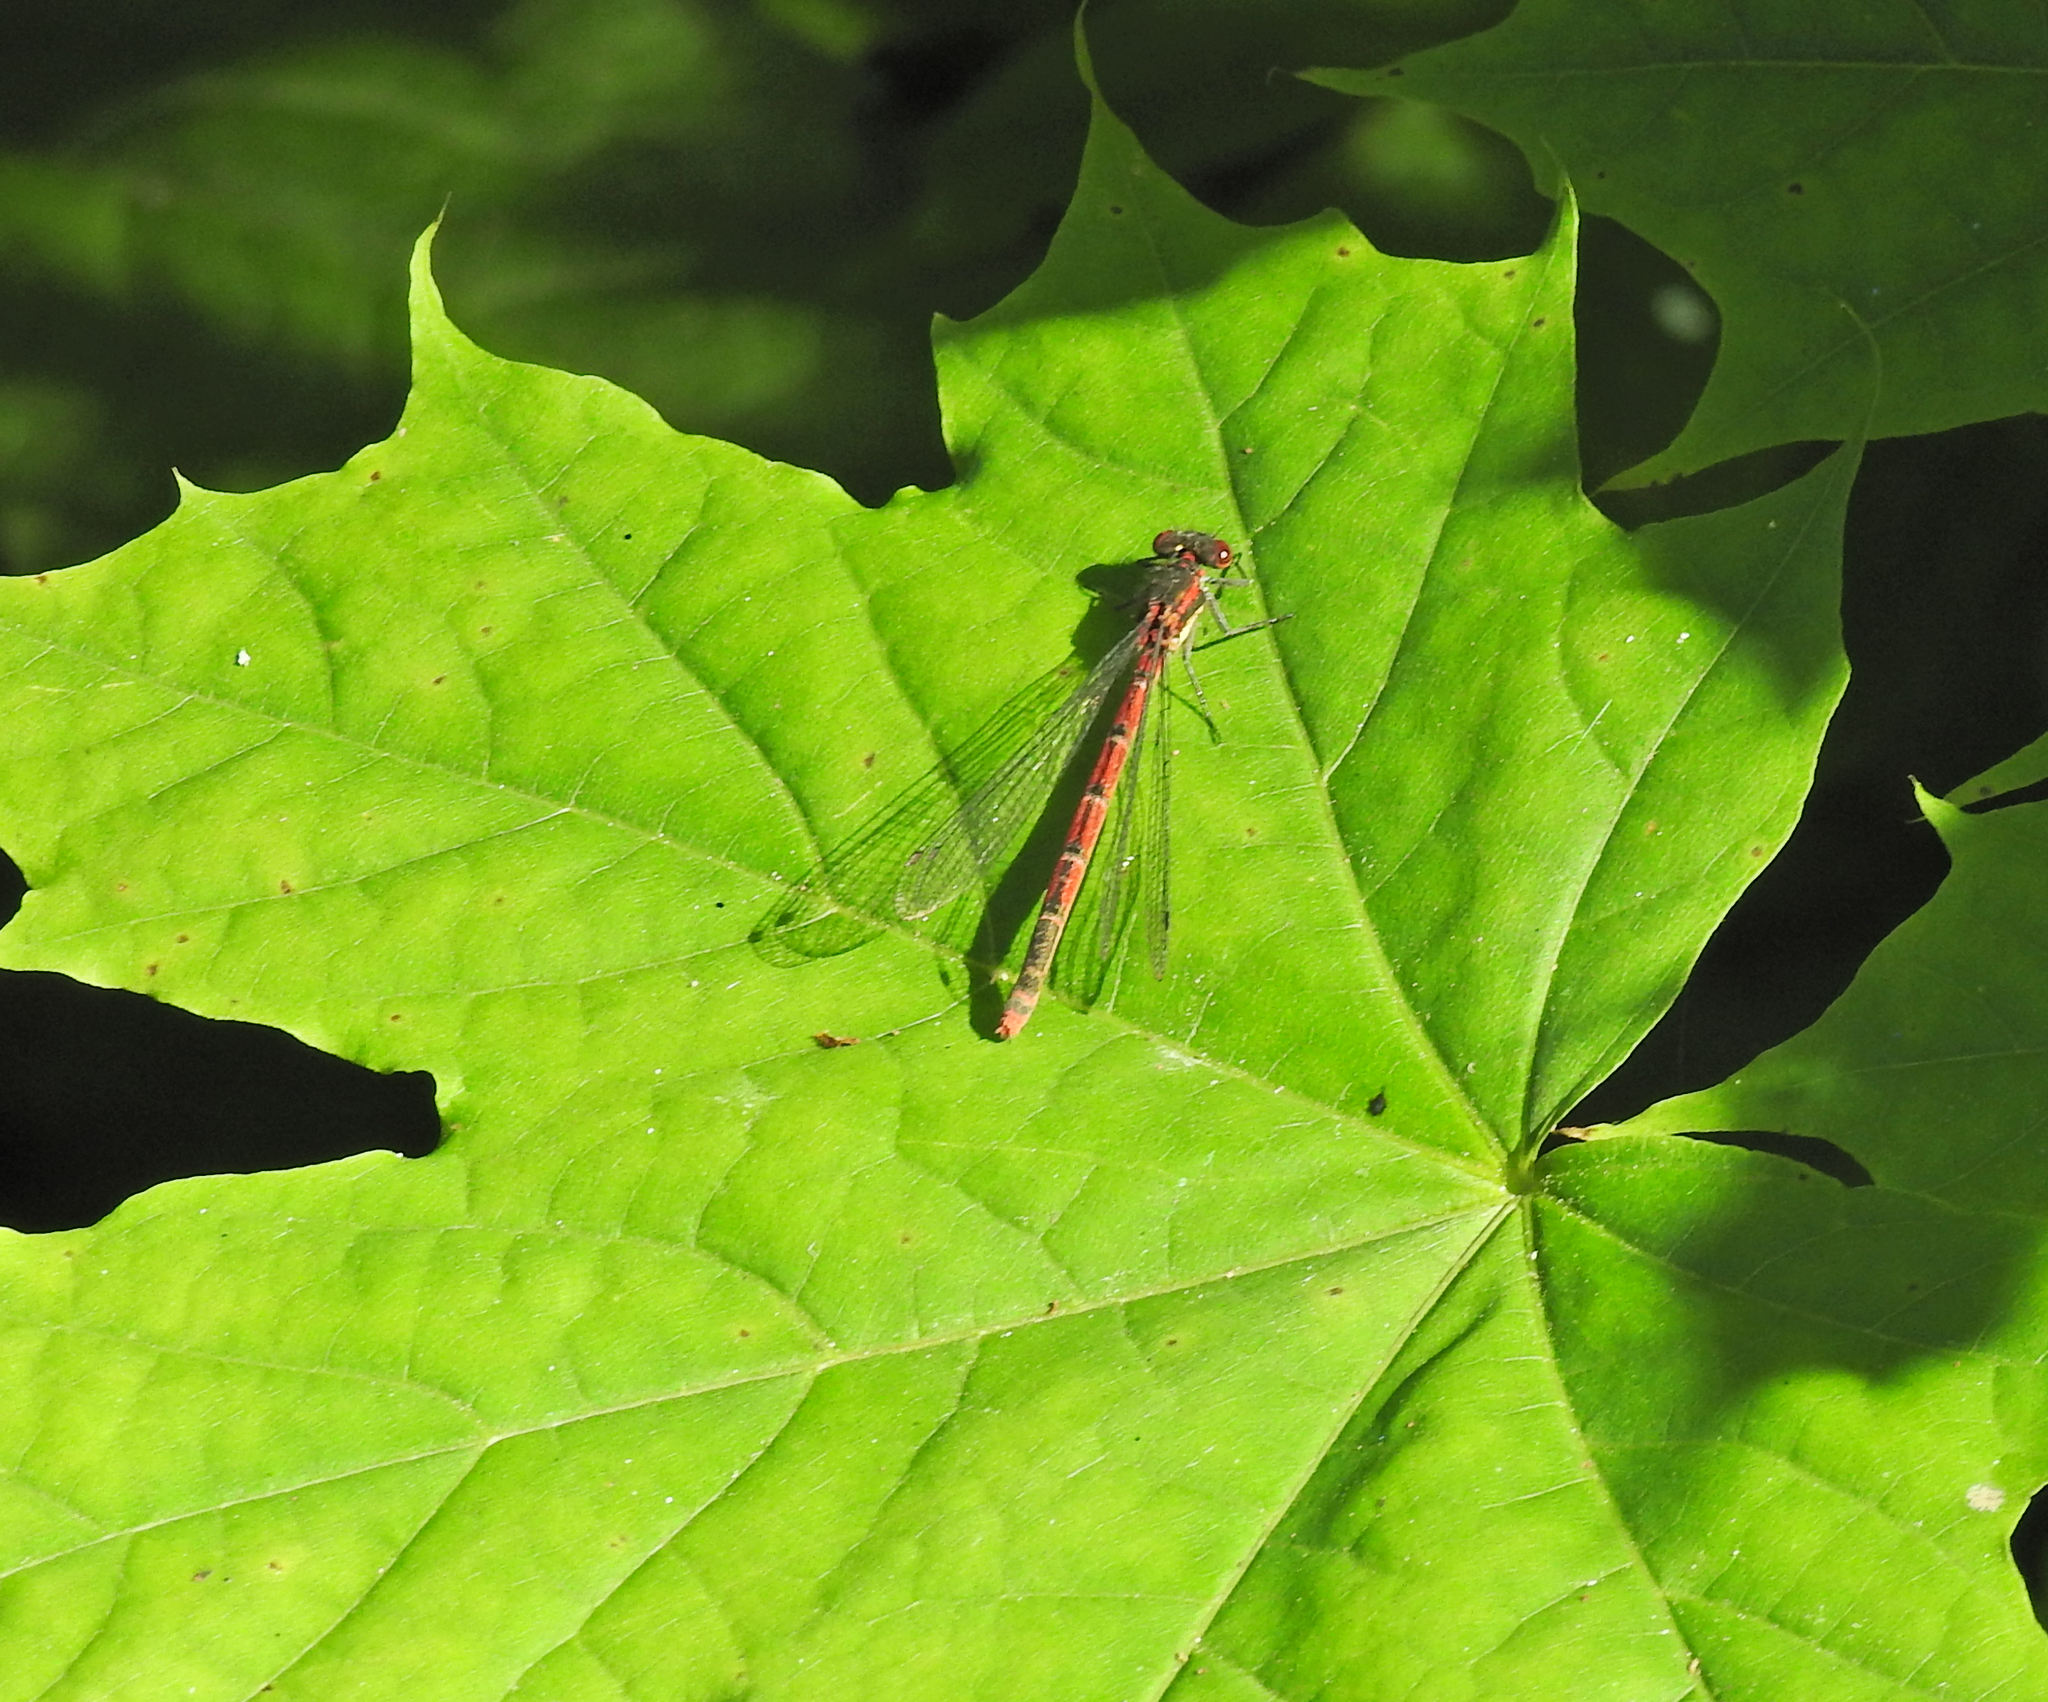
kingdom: Animalia
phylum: Arthropoda
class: Insecta
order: Odonata
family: Coenagrionidae
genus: Pyrrhosoma
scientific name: Pyrrhosoma nymphula
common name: Large red damsel
